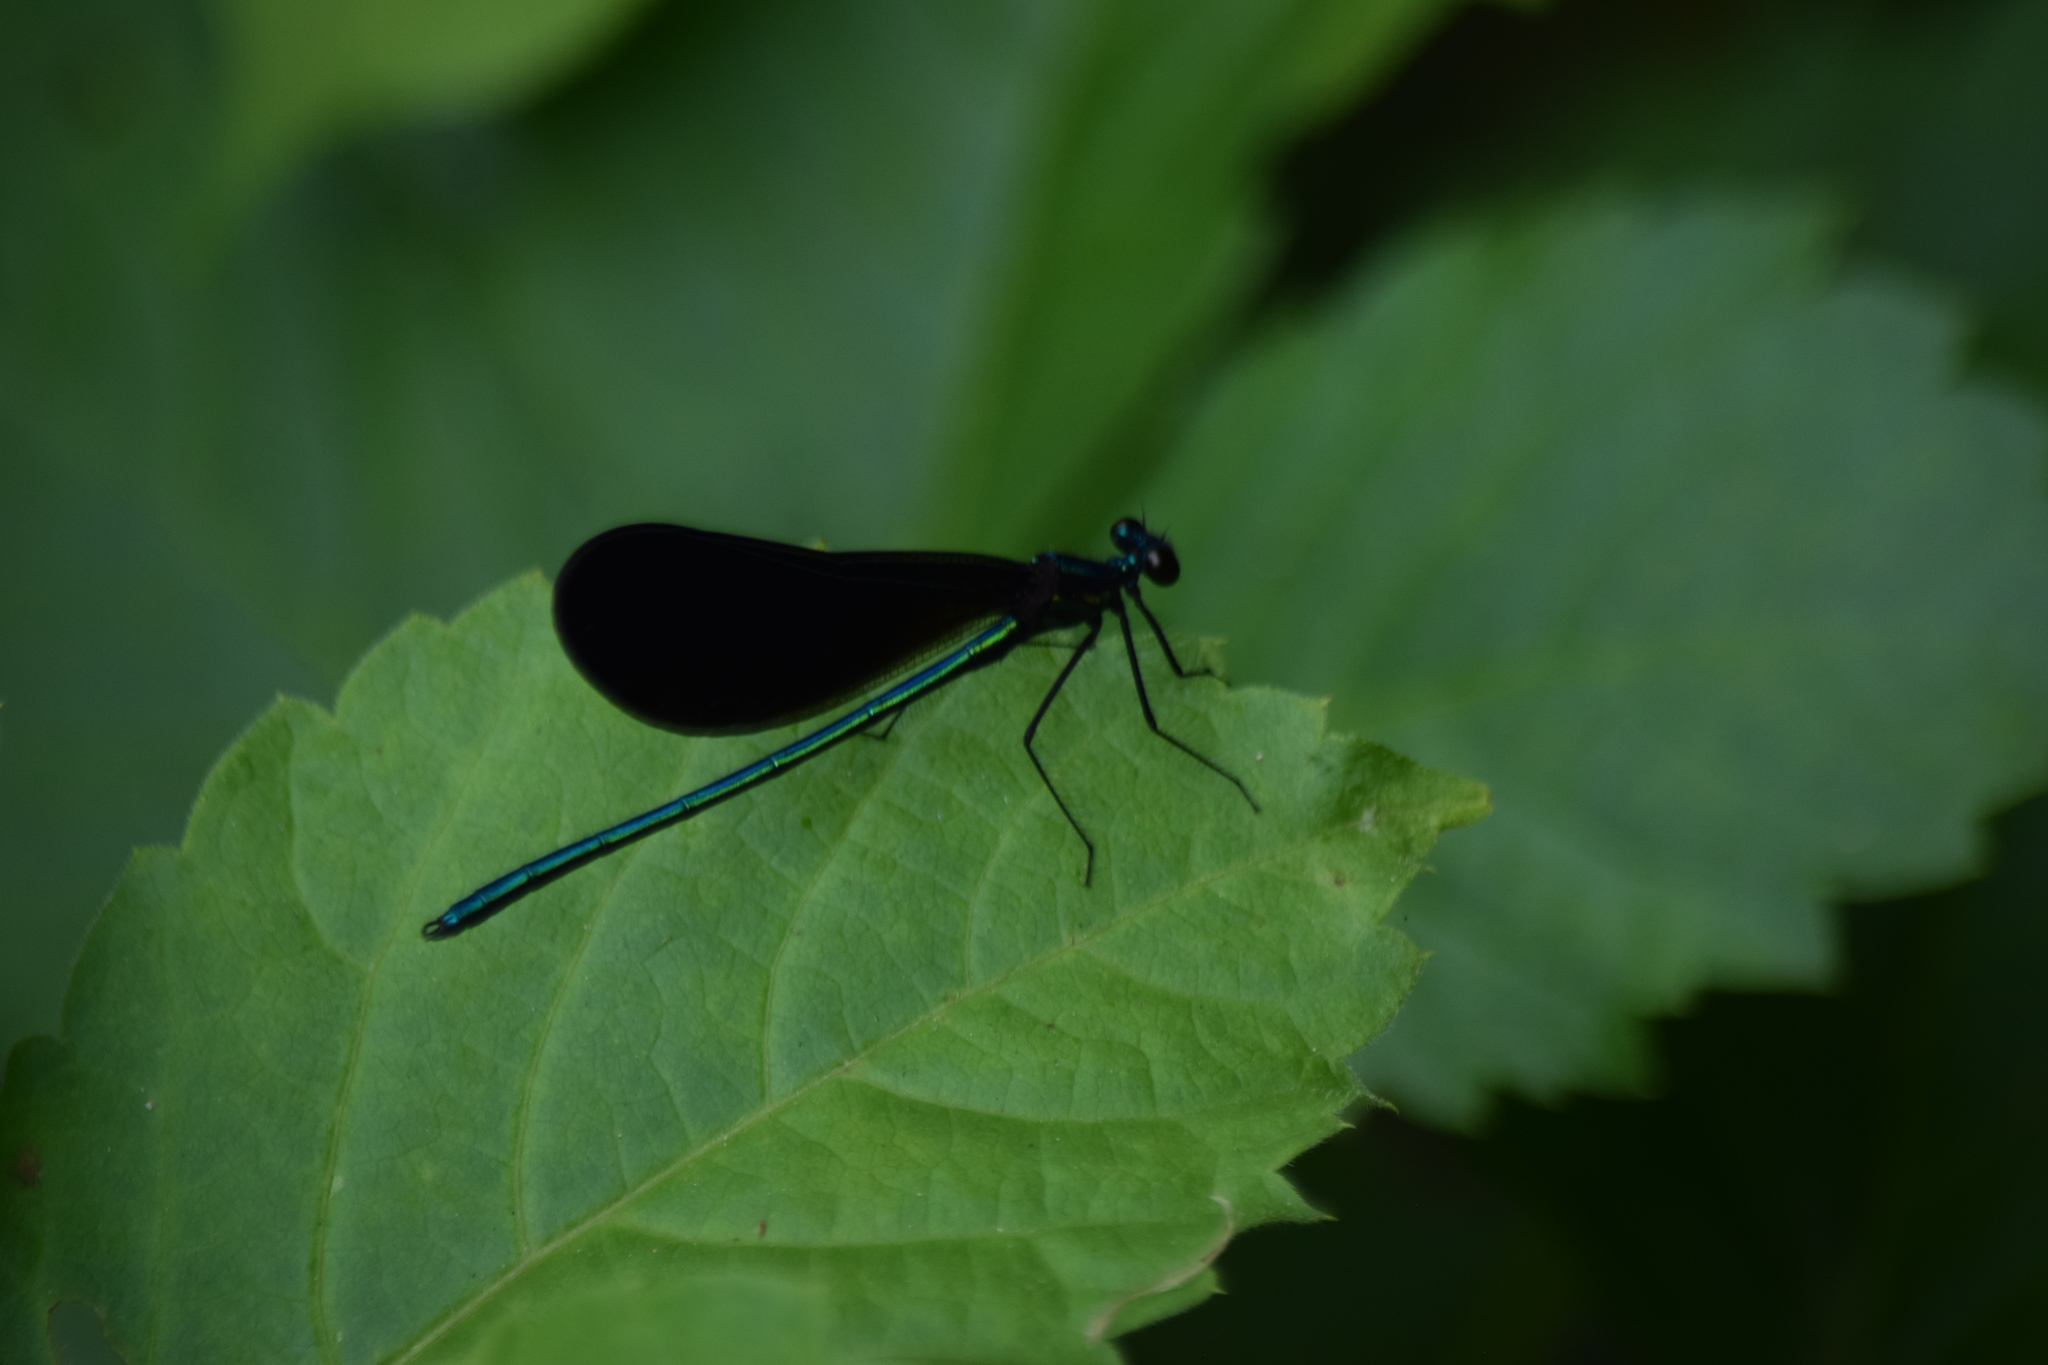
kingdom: Animalia
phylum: Arthropoda
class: Insecta
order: Odonata
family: Calopterygidae
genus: Calopteryx
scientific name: Calopteryx maculata
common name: Ebony jewelwing
